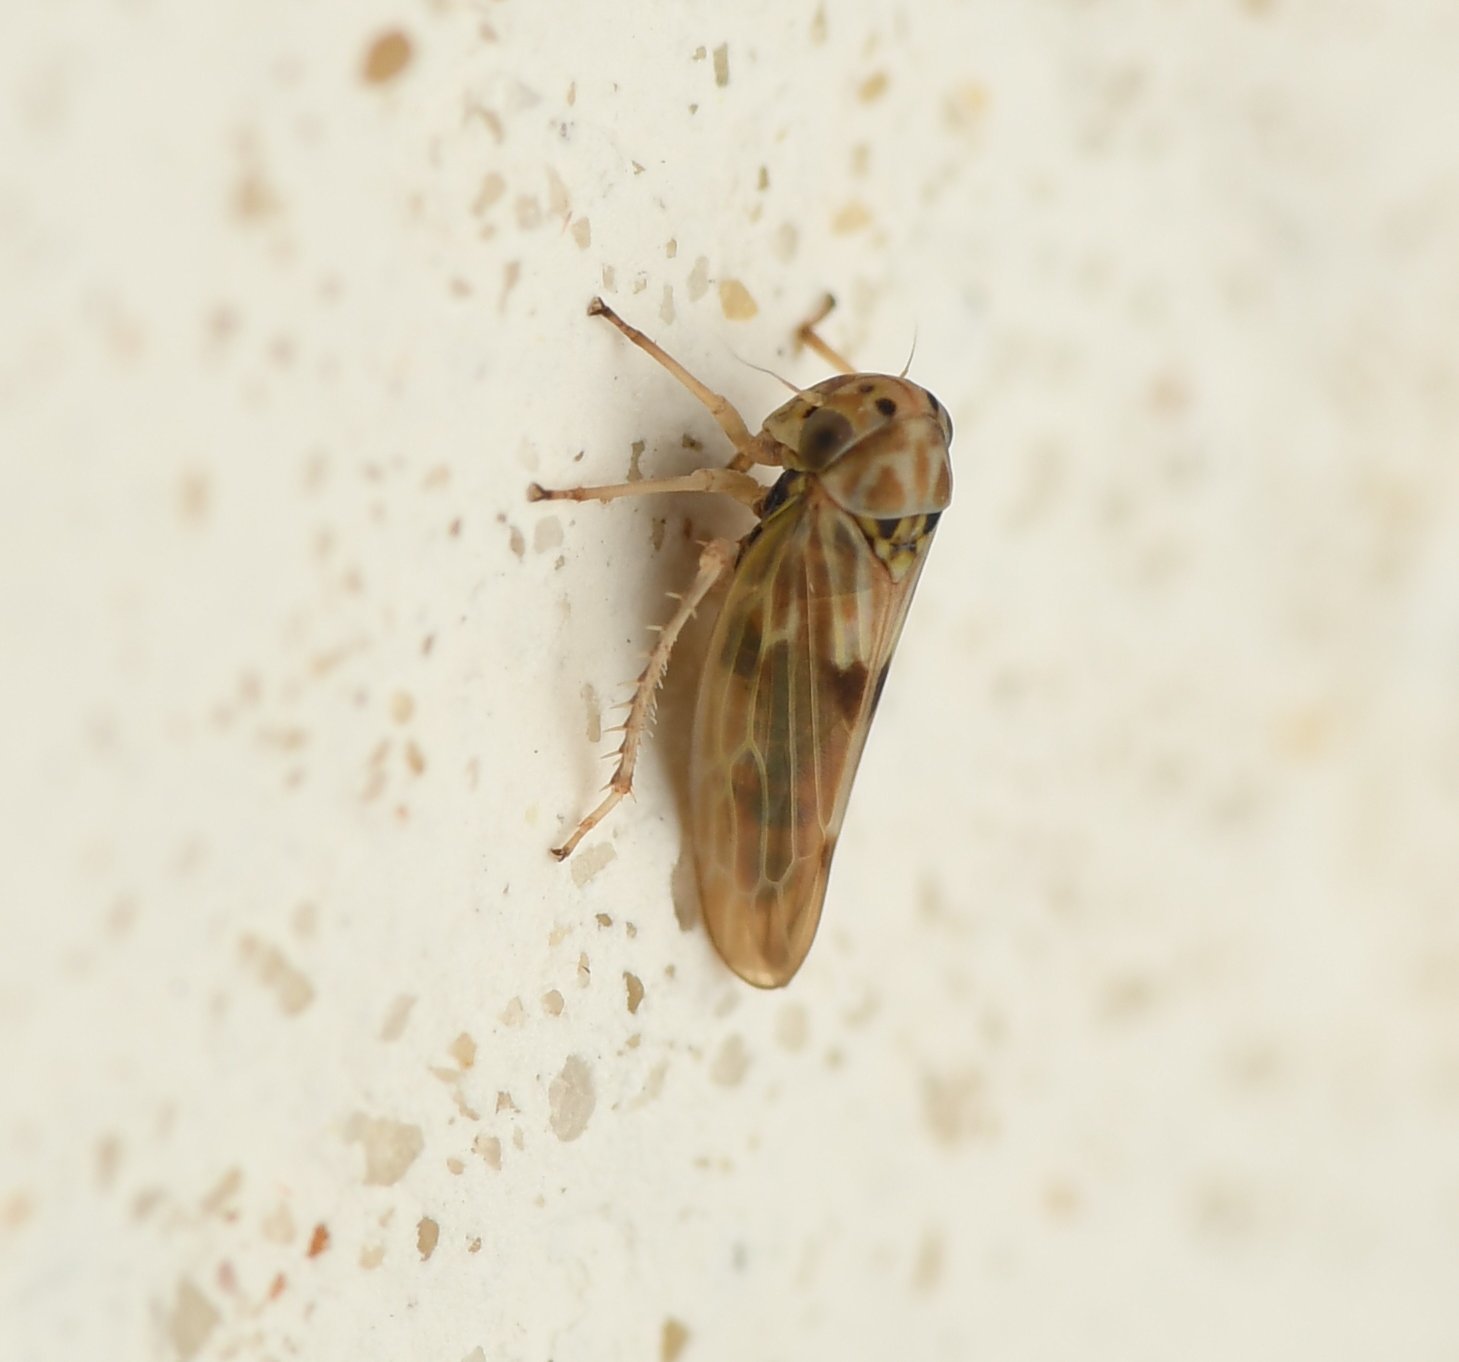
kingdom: Animalia
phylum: Arthropoda
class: Insecta
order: Hemiptera
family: Cicadellidae
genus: Agallia
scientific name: Agallia albidula
